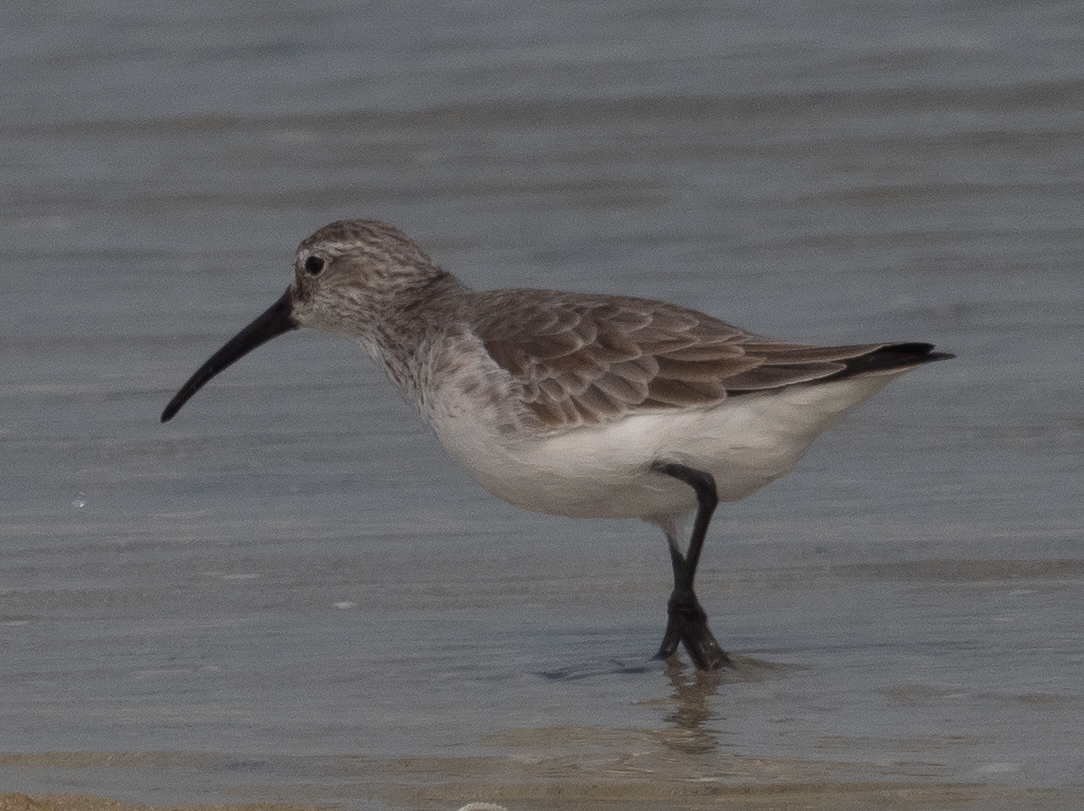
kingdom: Animalia
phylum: Chordata
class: Aves
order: Charadriiformes
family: Scolopacidae
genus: Calidris
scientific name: Calidris ferruginea
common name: Curlew sandpiper
